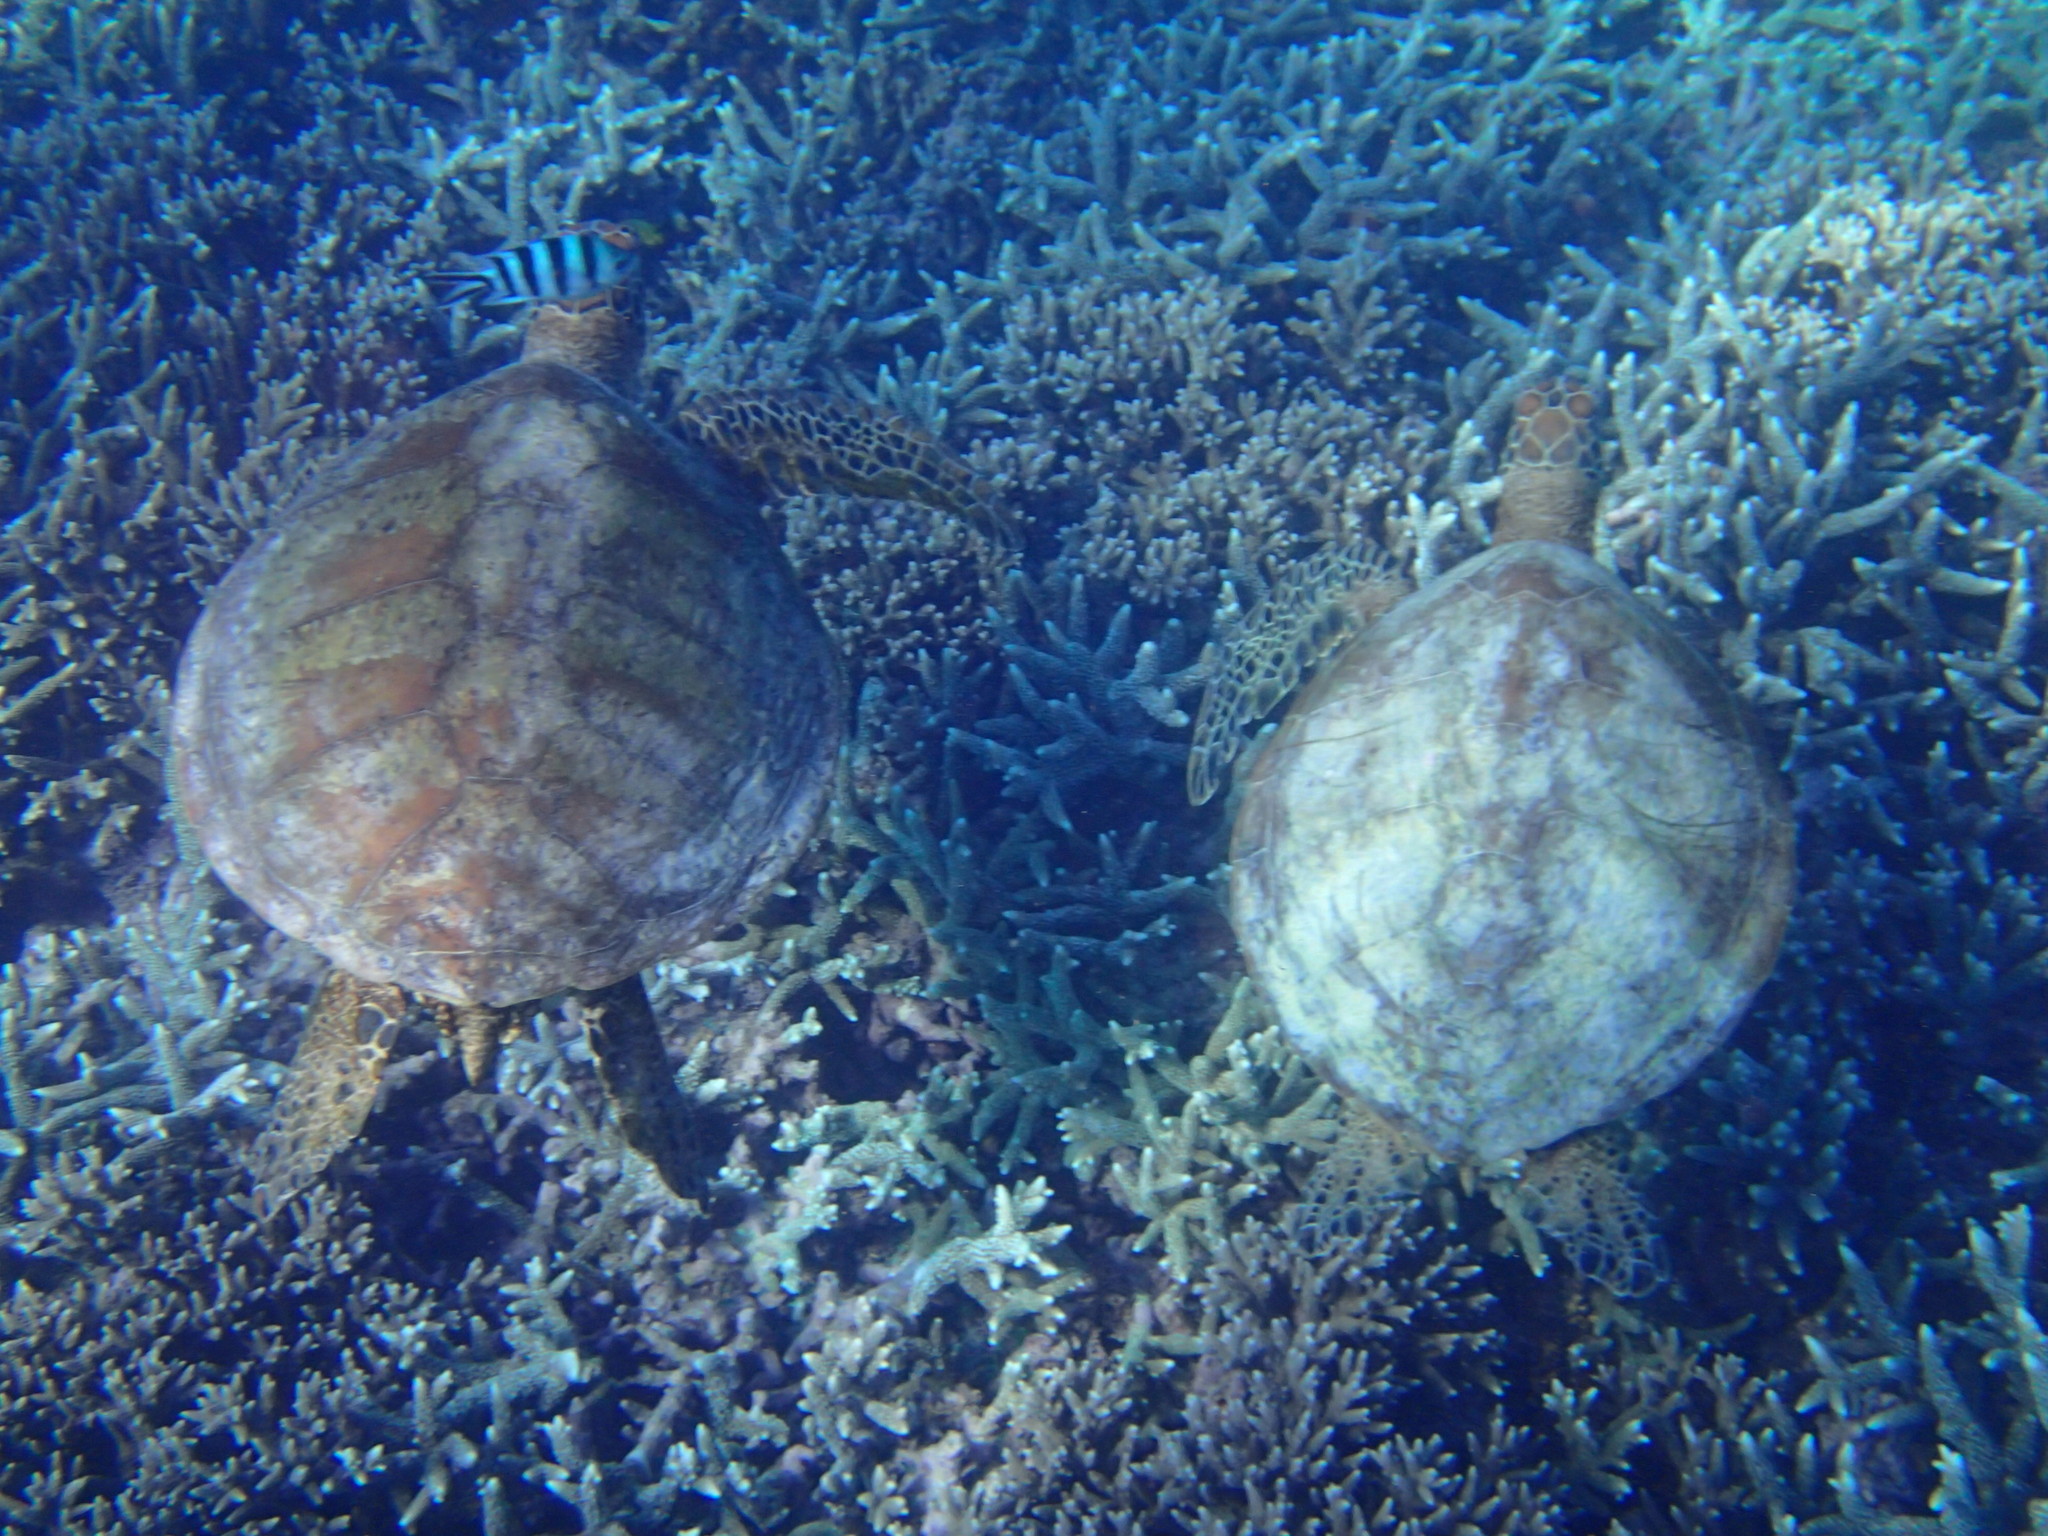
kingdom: Animalia
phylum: Chordata
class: Testudines
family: Cheloniidae
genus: Chelonia
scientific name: Chelonia mydas
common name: Green turtle
